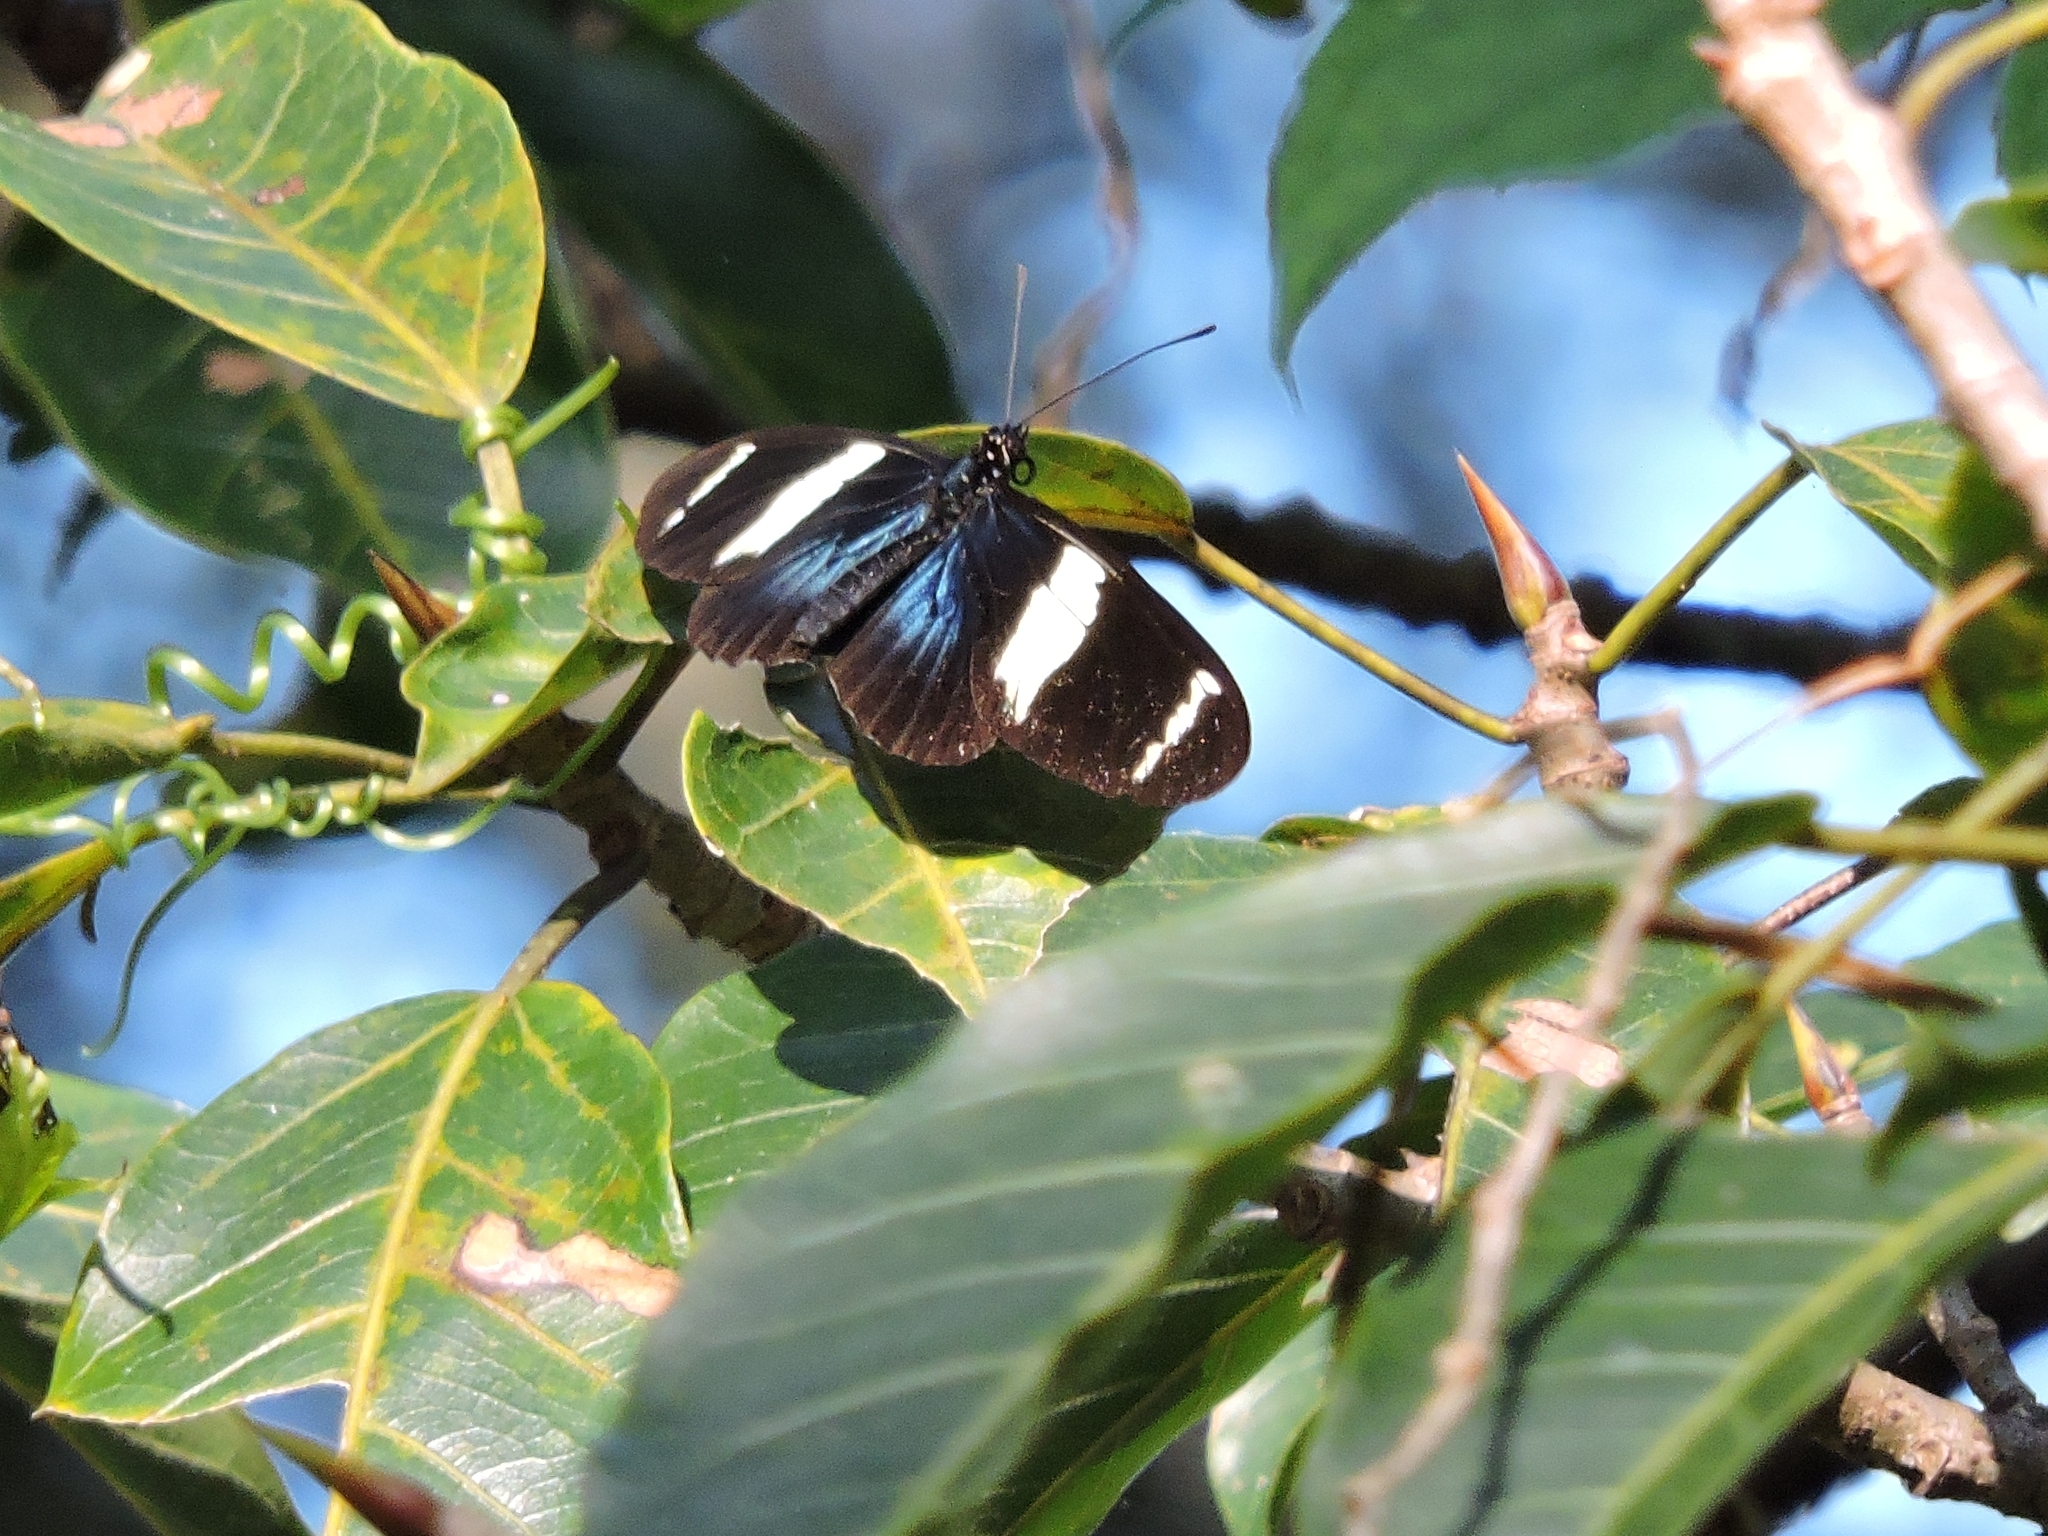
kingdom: Animalia
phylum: Arthropoda
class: Insecta
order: Lepidoptera
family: Nymphalidae
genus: Heliconius
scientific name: Heliconius sara
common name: Sara longwing
